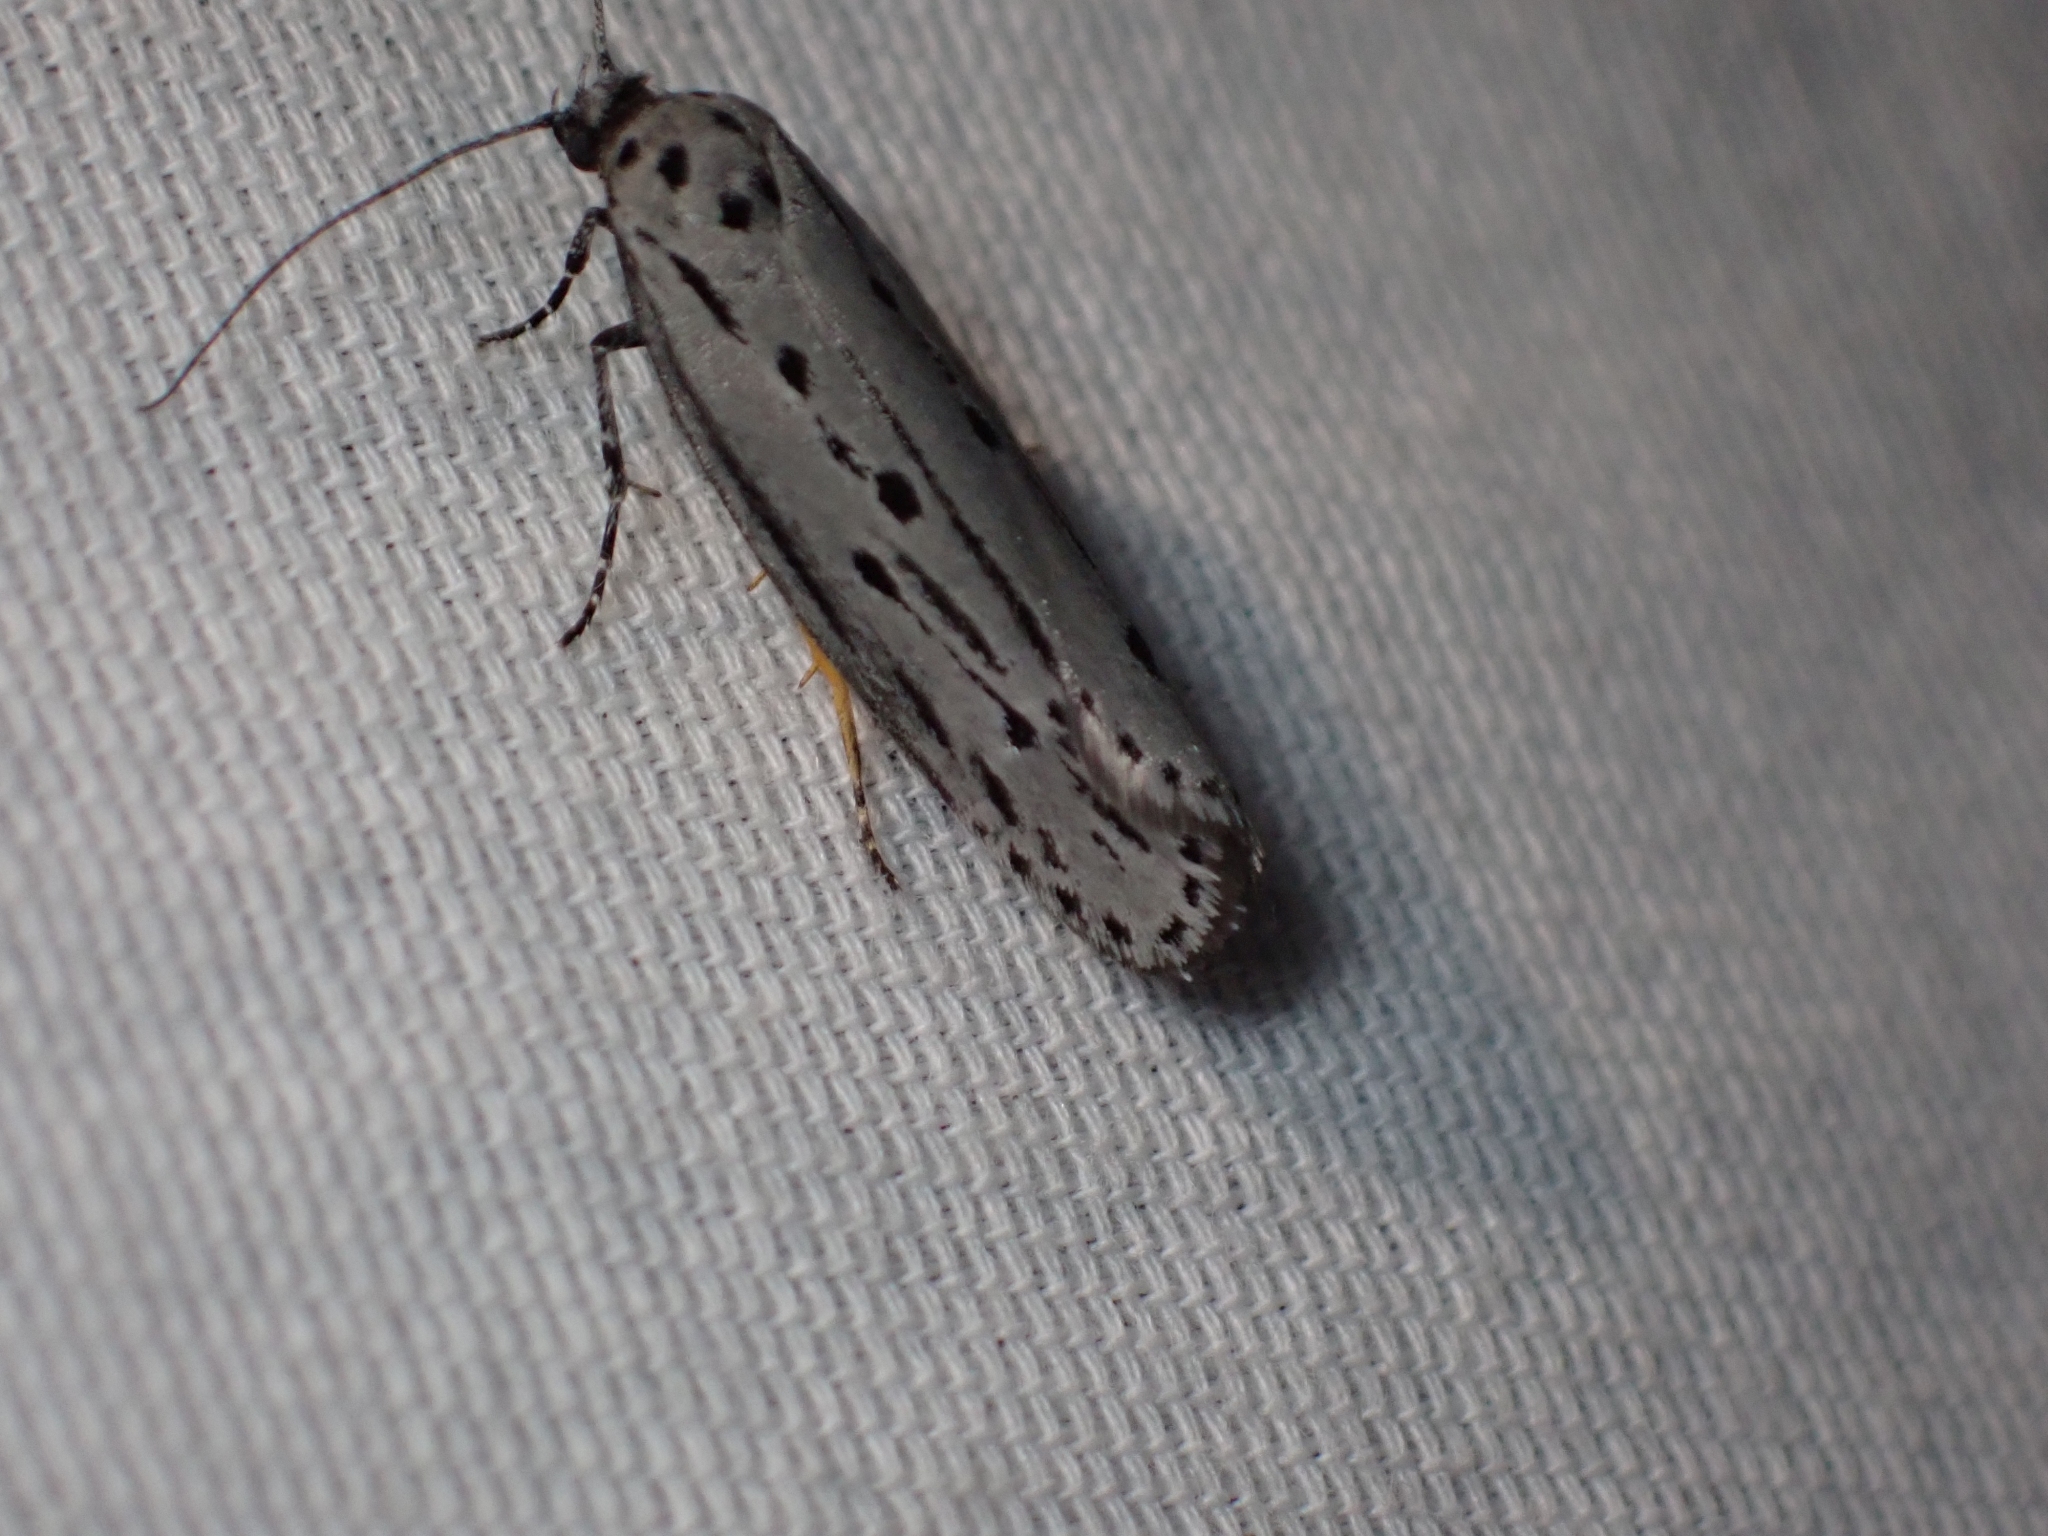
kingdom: Animalia
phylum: Arthropoda
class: Insecta
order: Lepidoptera
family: Ethmiidae
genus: Ethmia
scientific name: Ethmia monticola
